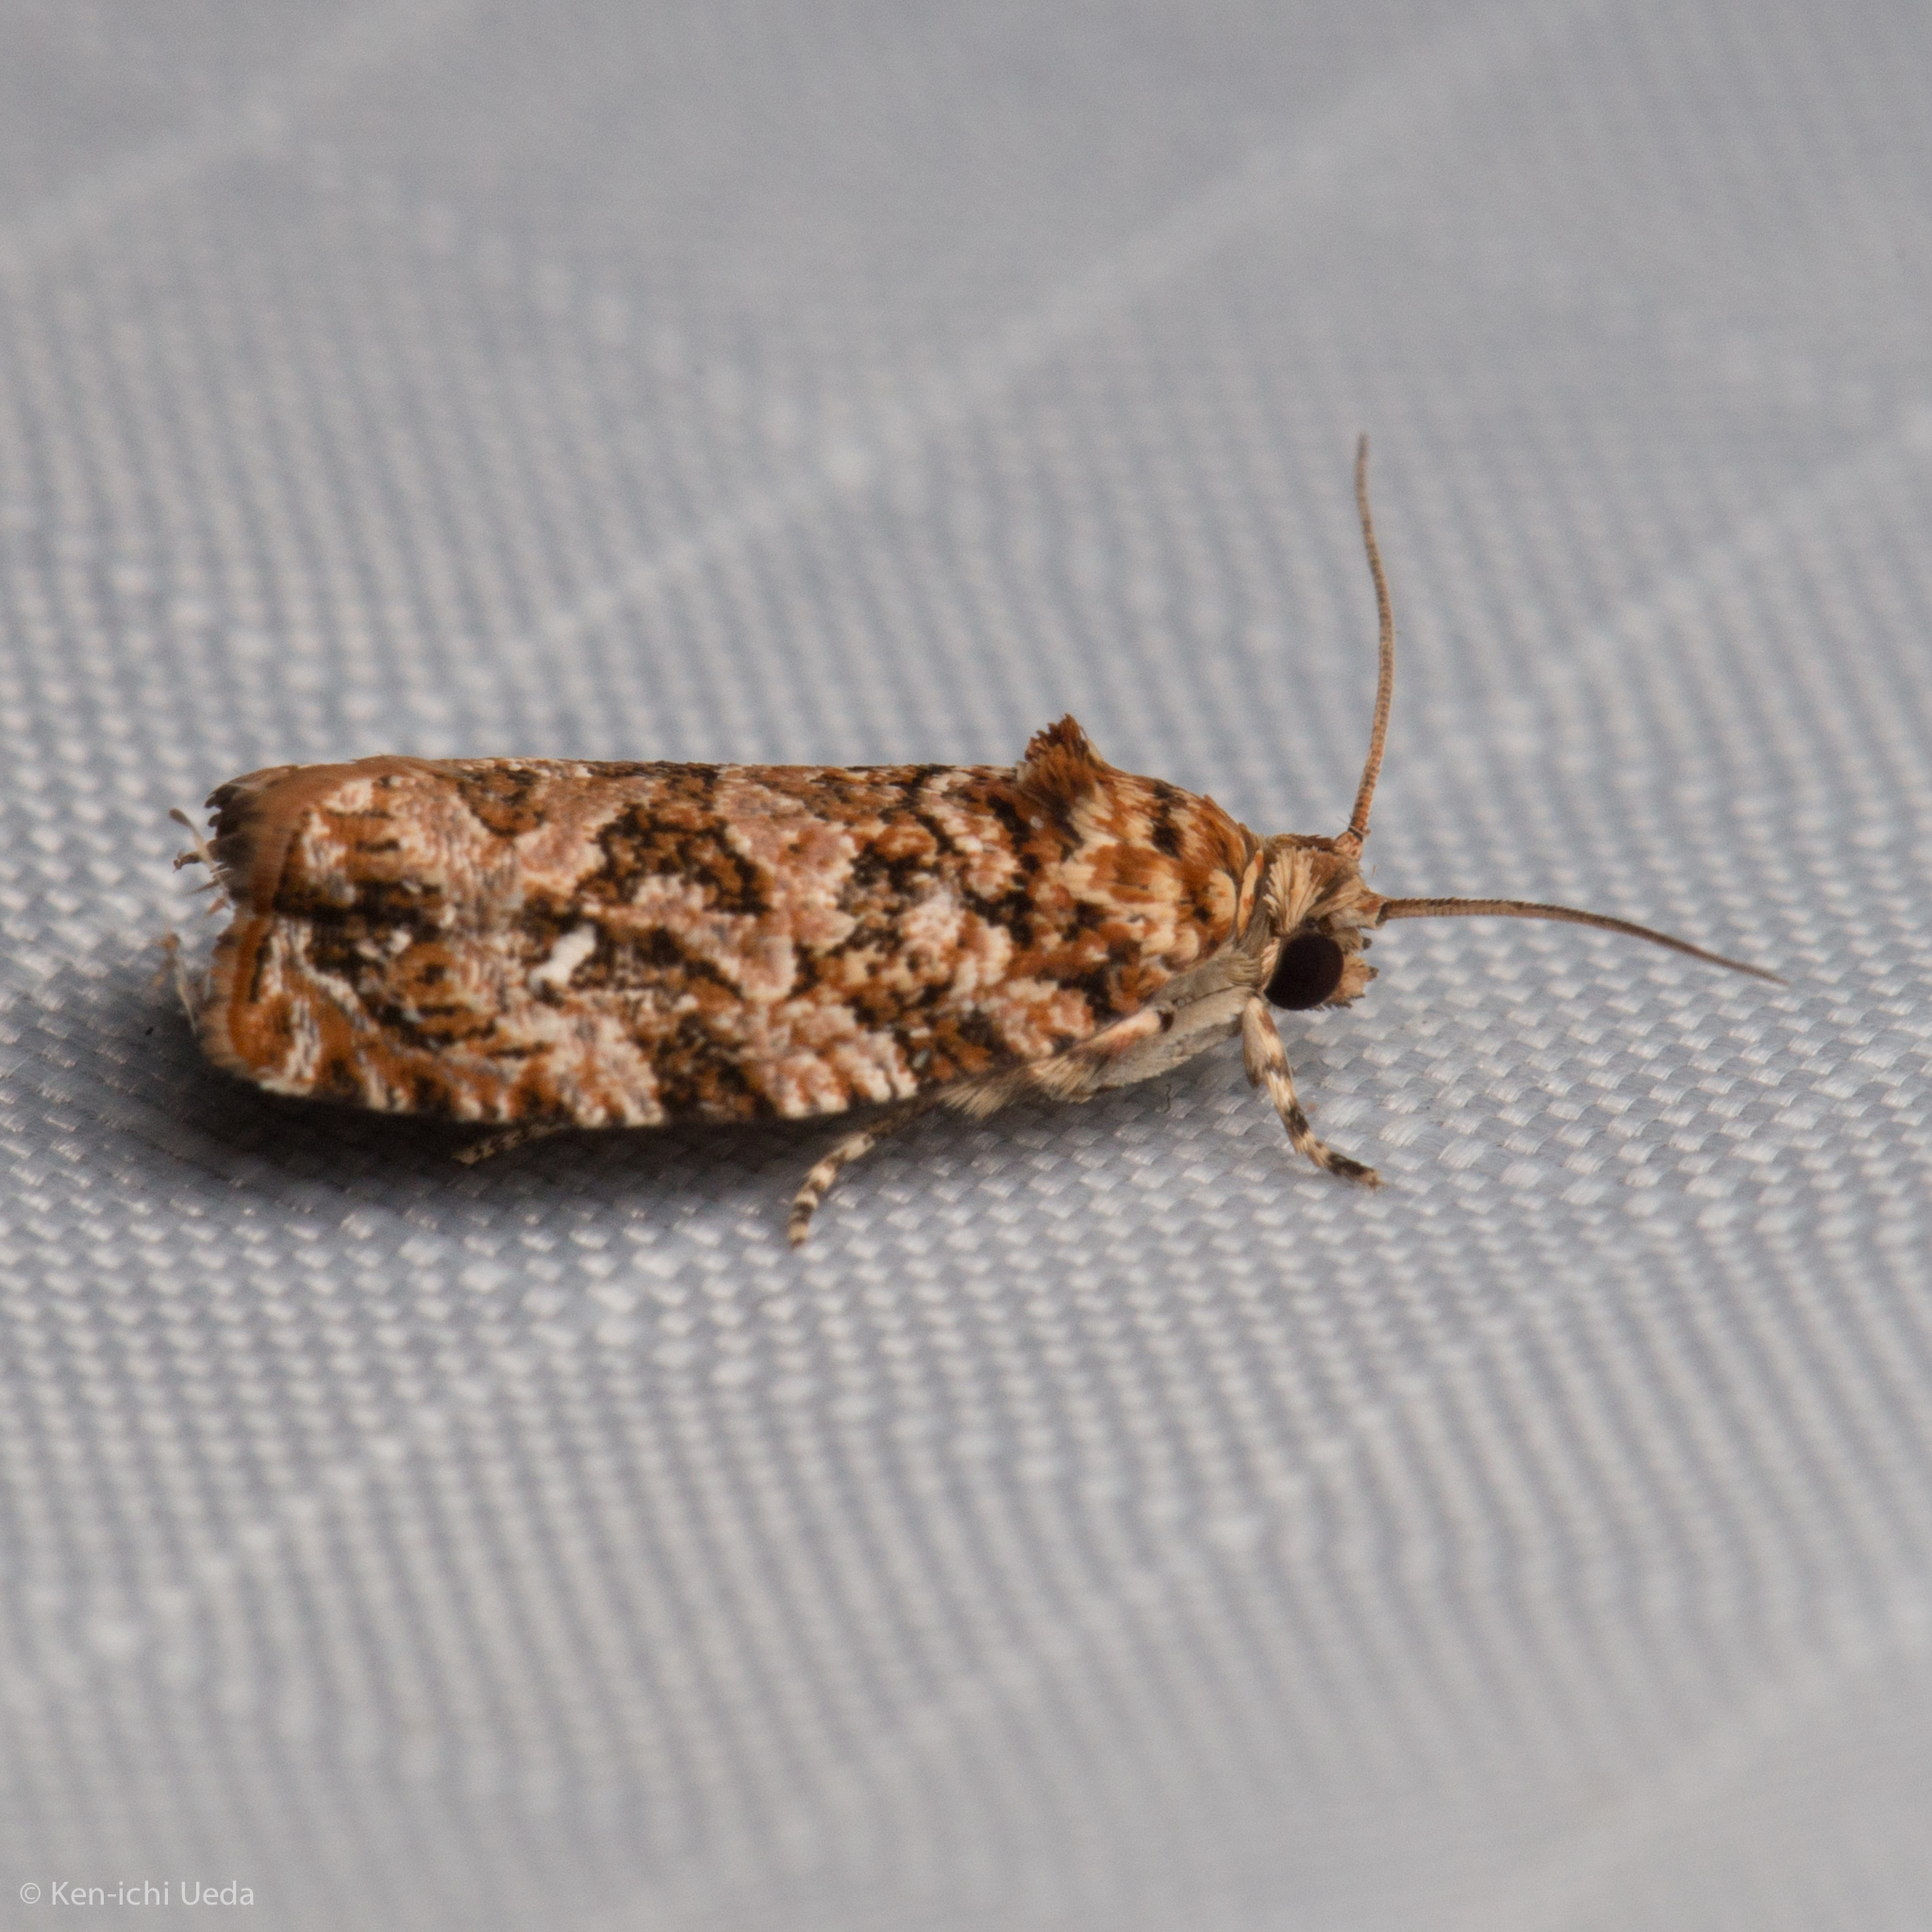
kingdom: Animalia
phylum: Arthropoda
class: Insecta
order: Lepidoptera
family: Tortricidae
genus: Phaecasiophora
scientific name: Phaecasiophora niveiguttana
